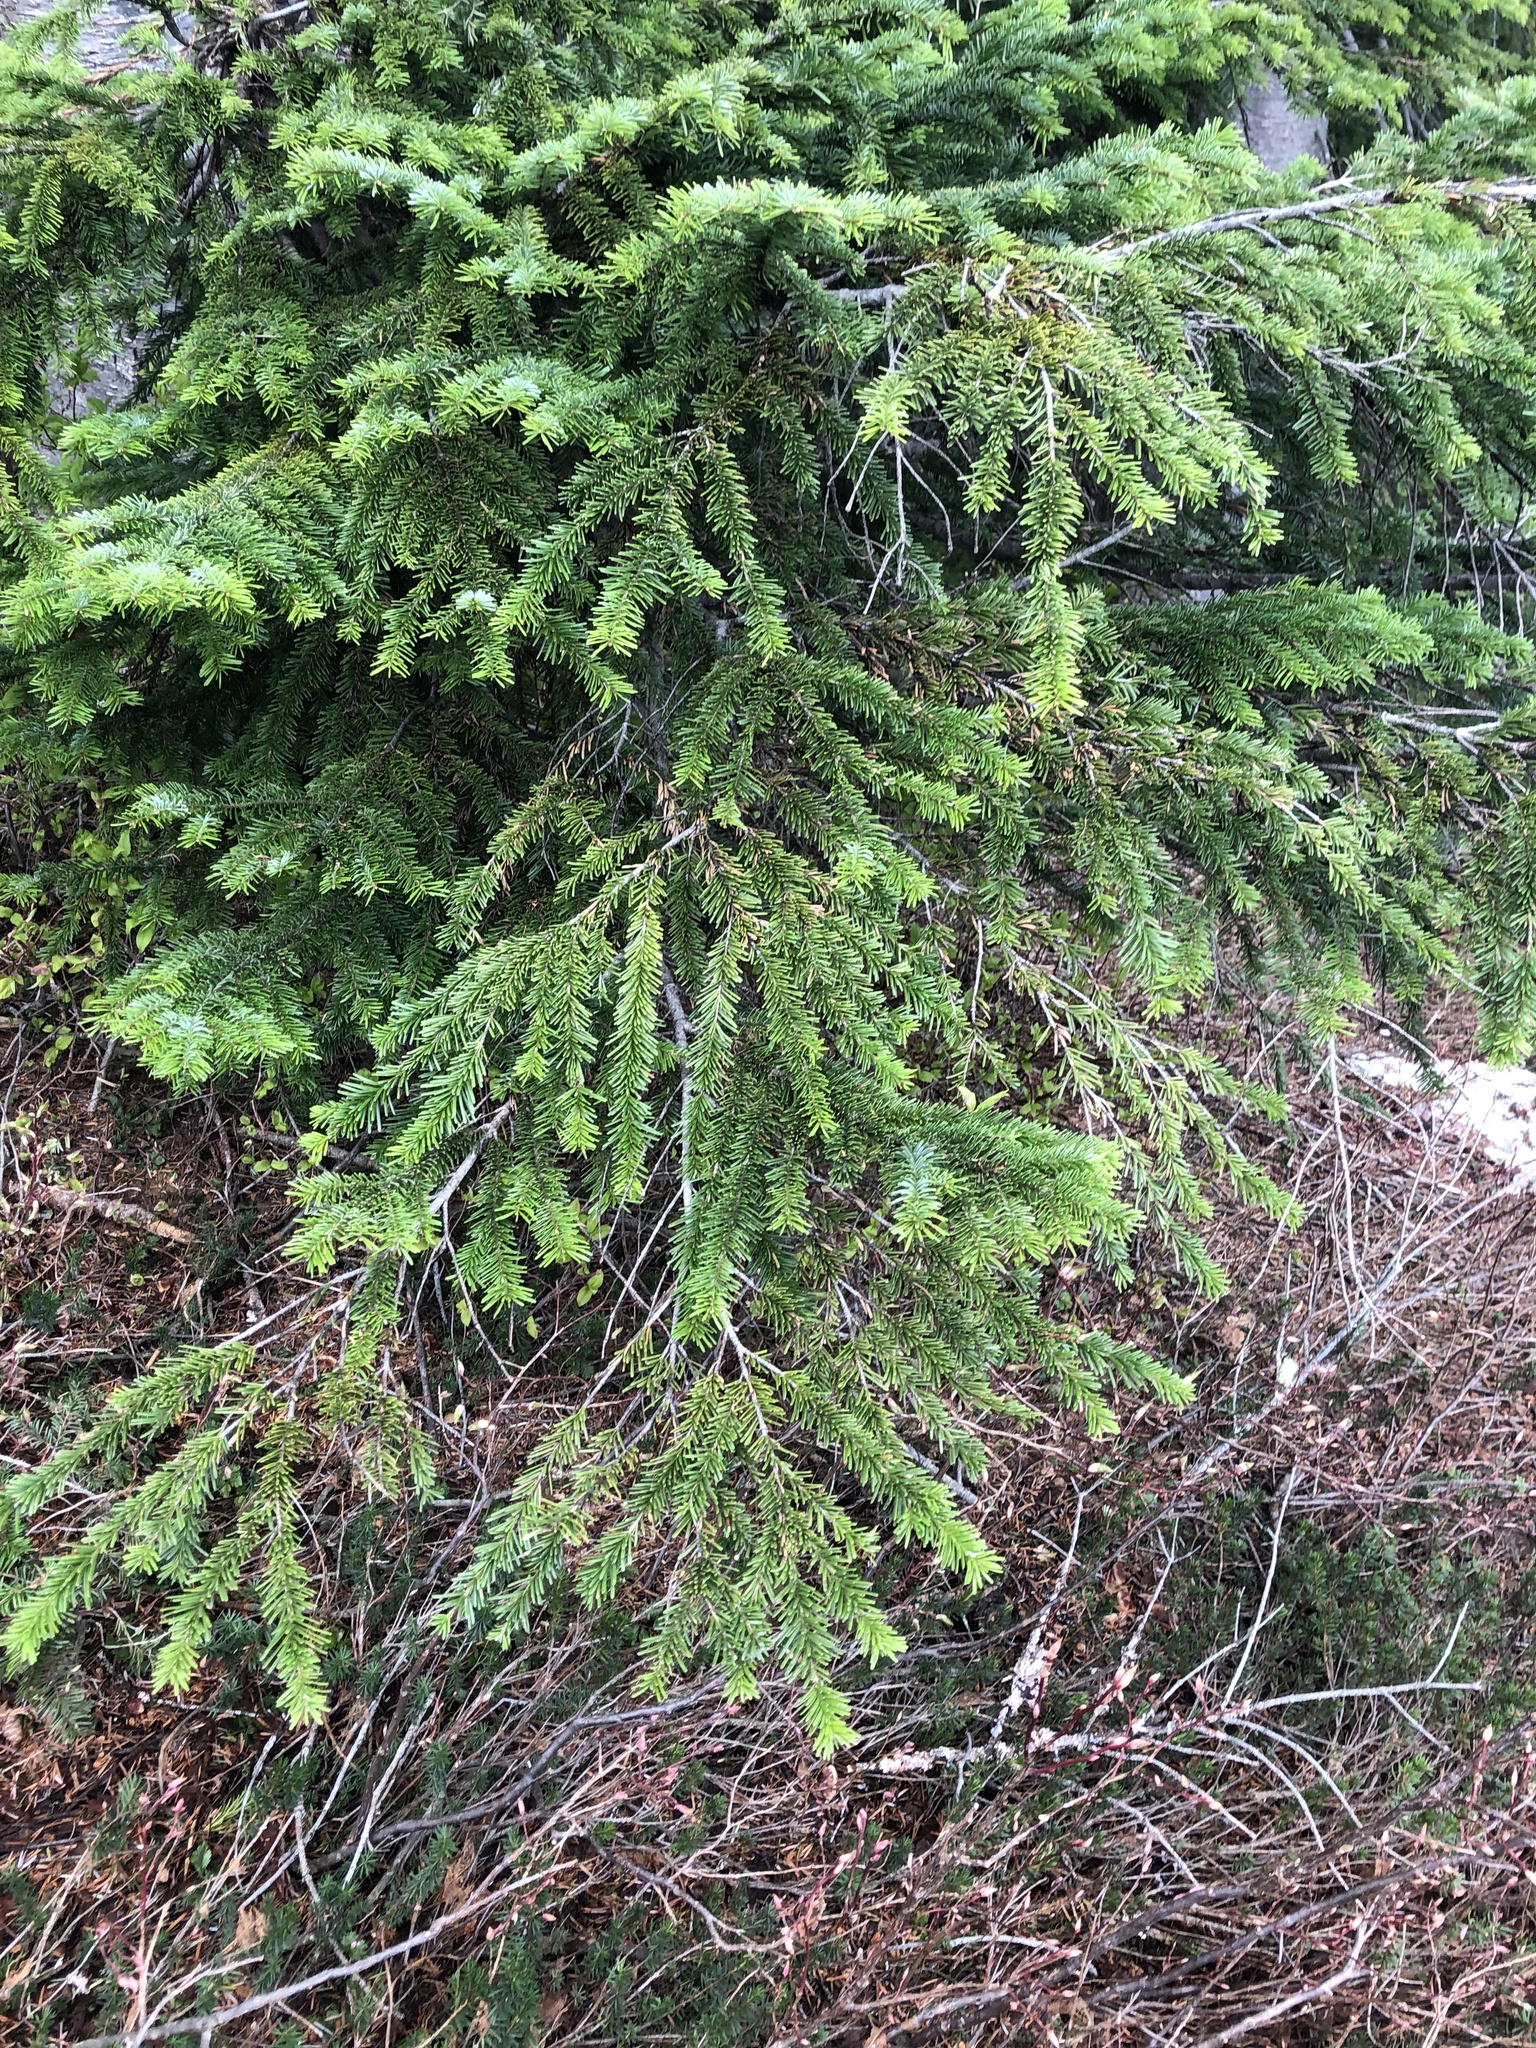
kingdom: Plantae
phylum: Tracheophyta
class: Pinopsida
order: Pinales
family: Pinaceae
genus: Abies
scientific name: Abies amabilis
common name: Pacific silver fir
